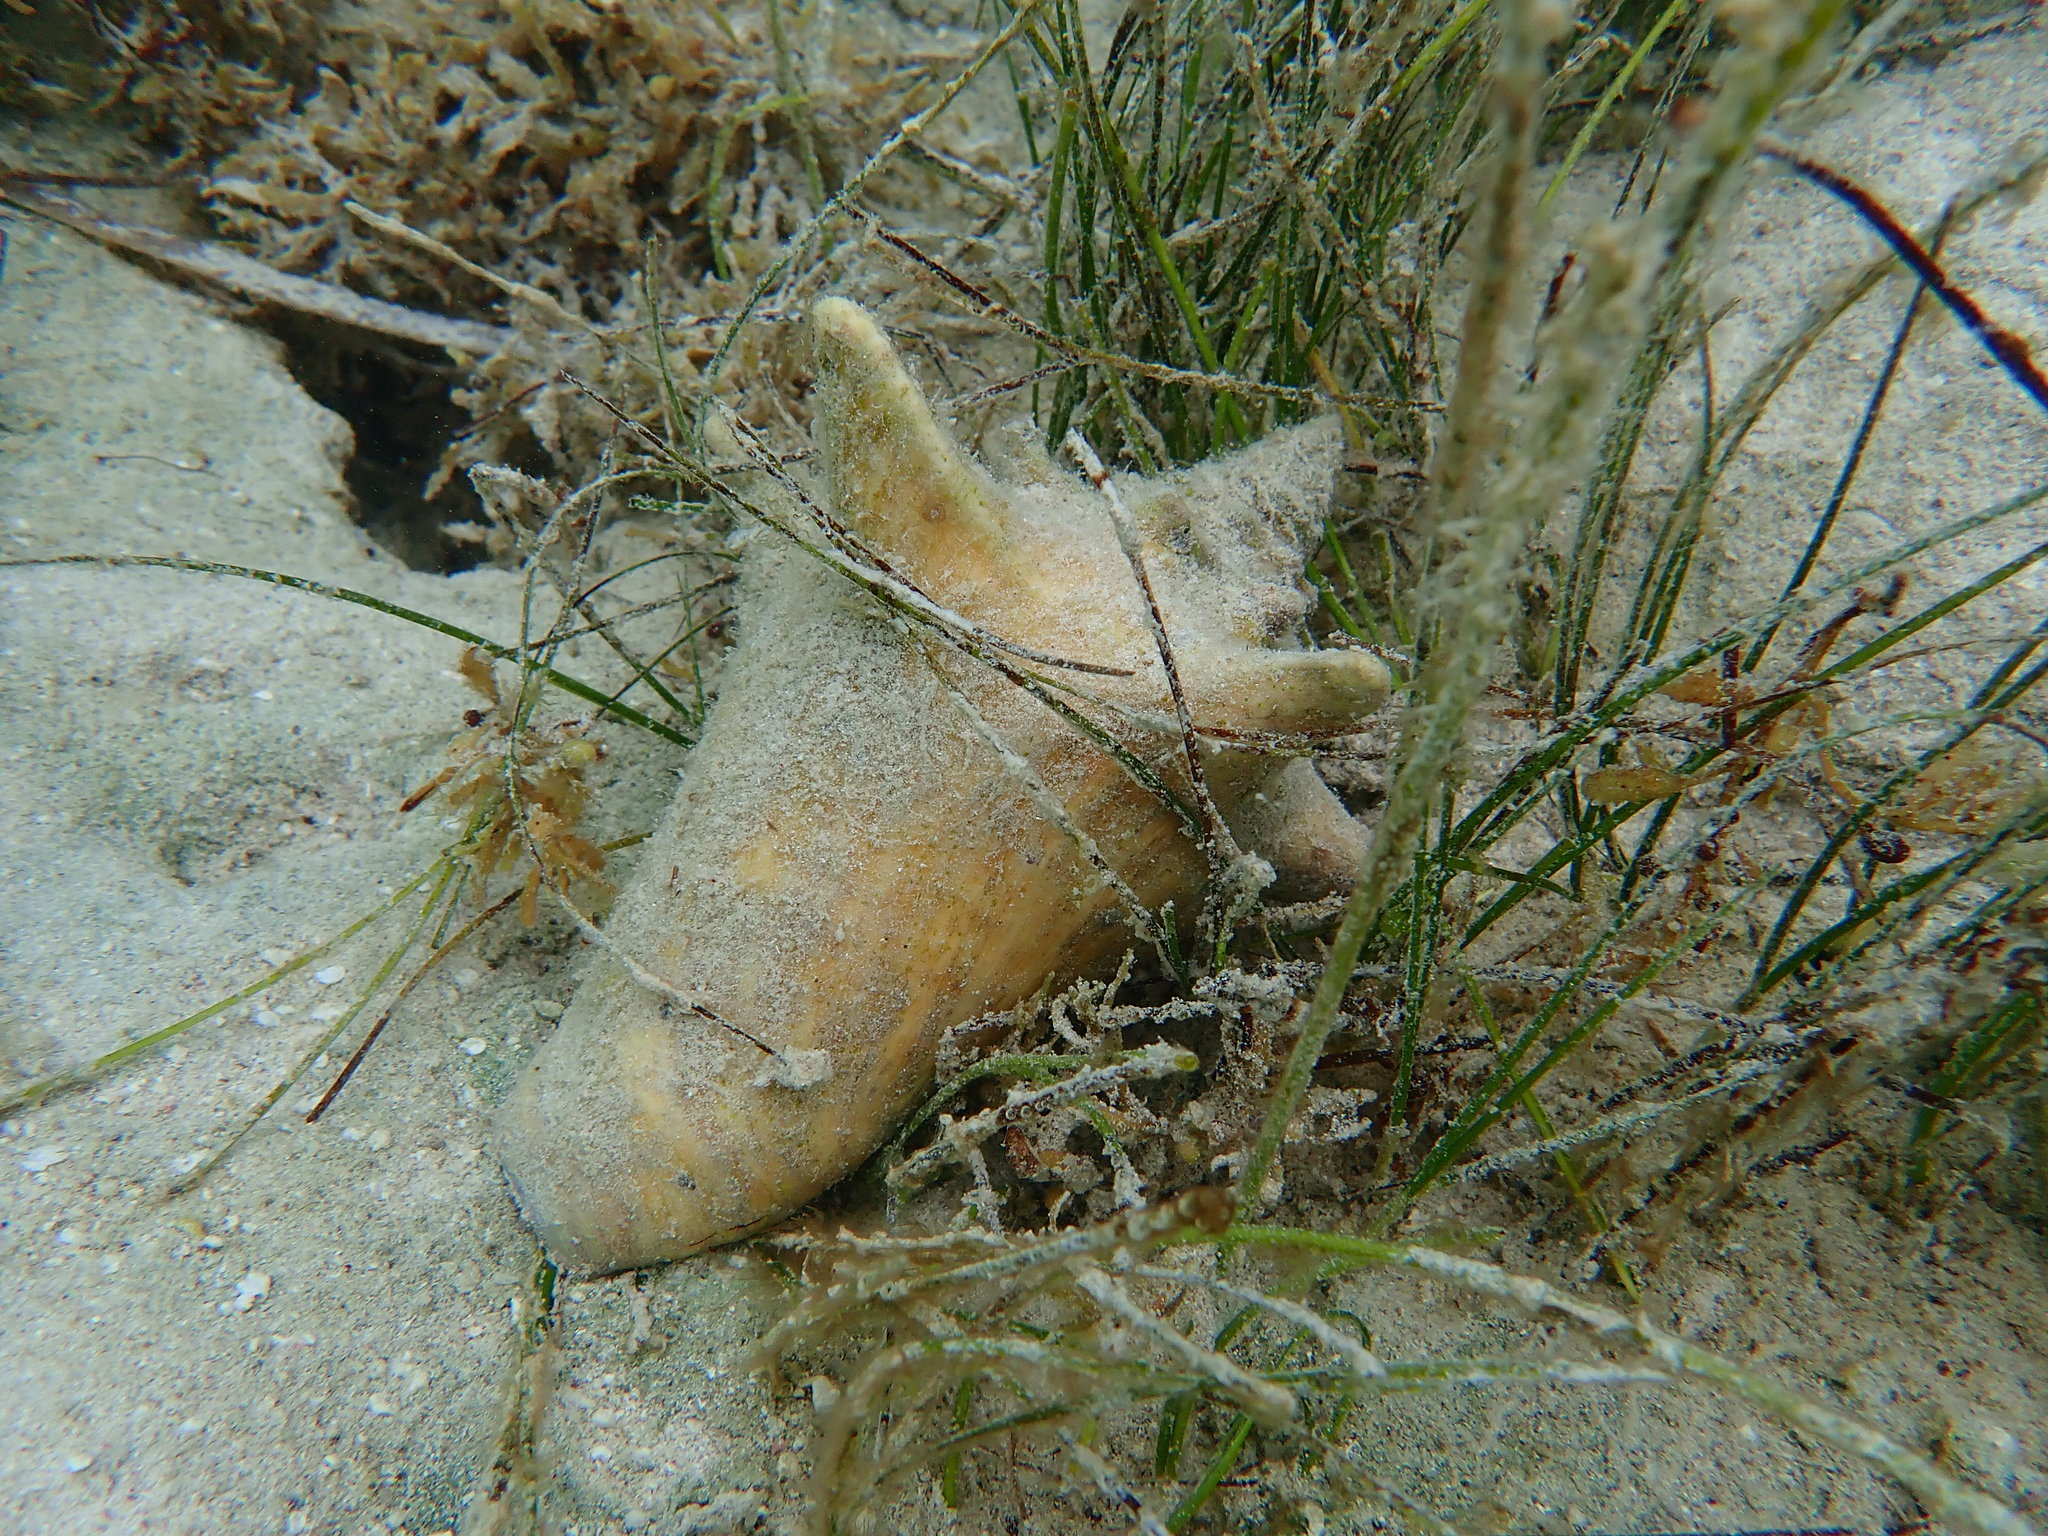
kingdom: Animalia
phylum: Mollusca
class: Gastropoda
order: Littorinimorpha
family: Strombidae
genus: Aliger
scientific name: Aliger gigas
